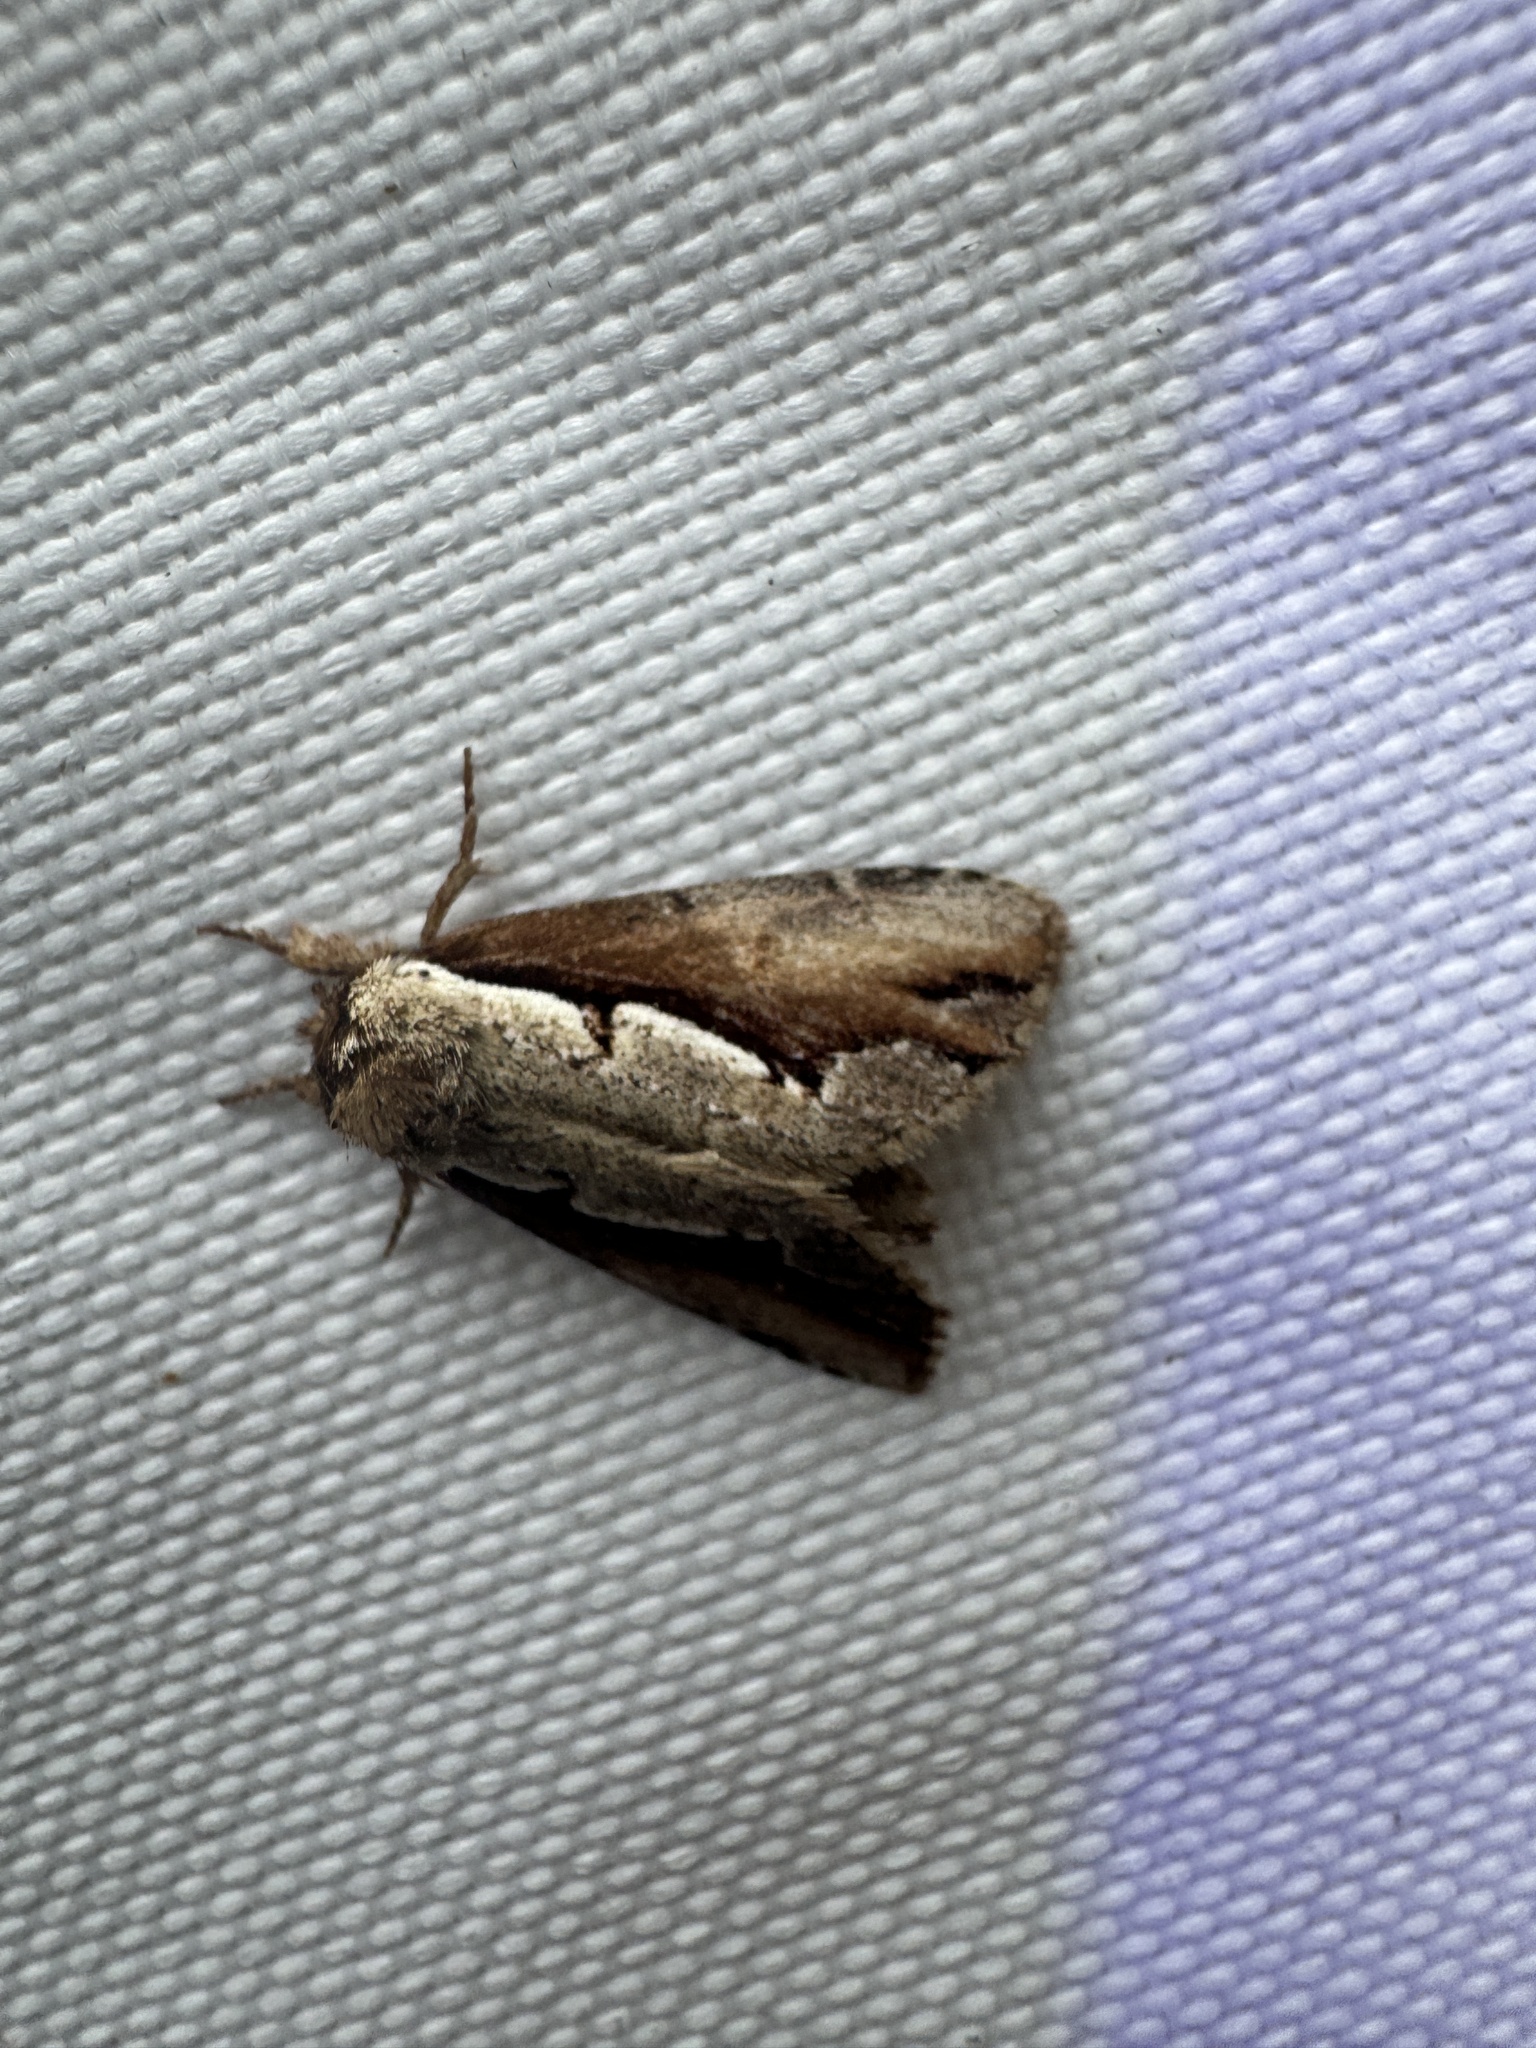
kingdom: Animalia
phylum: Arthropoda
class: Insecta
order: Lepidoptera
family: Notodontidae
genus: Nerice
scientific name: Nerice bidentata
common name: Double-toothed prominent
